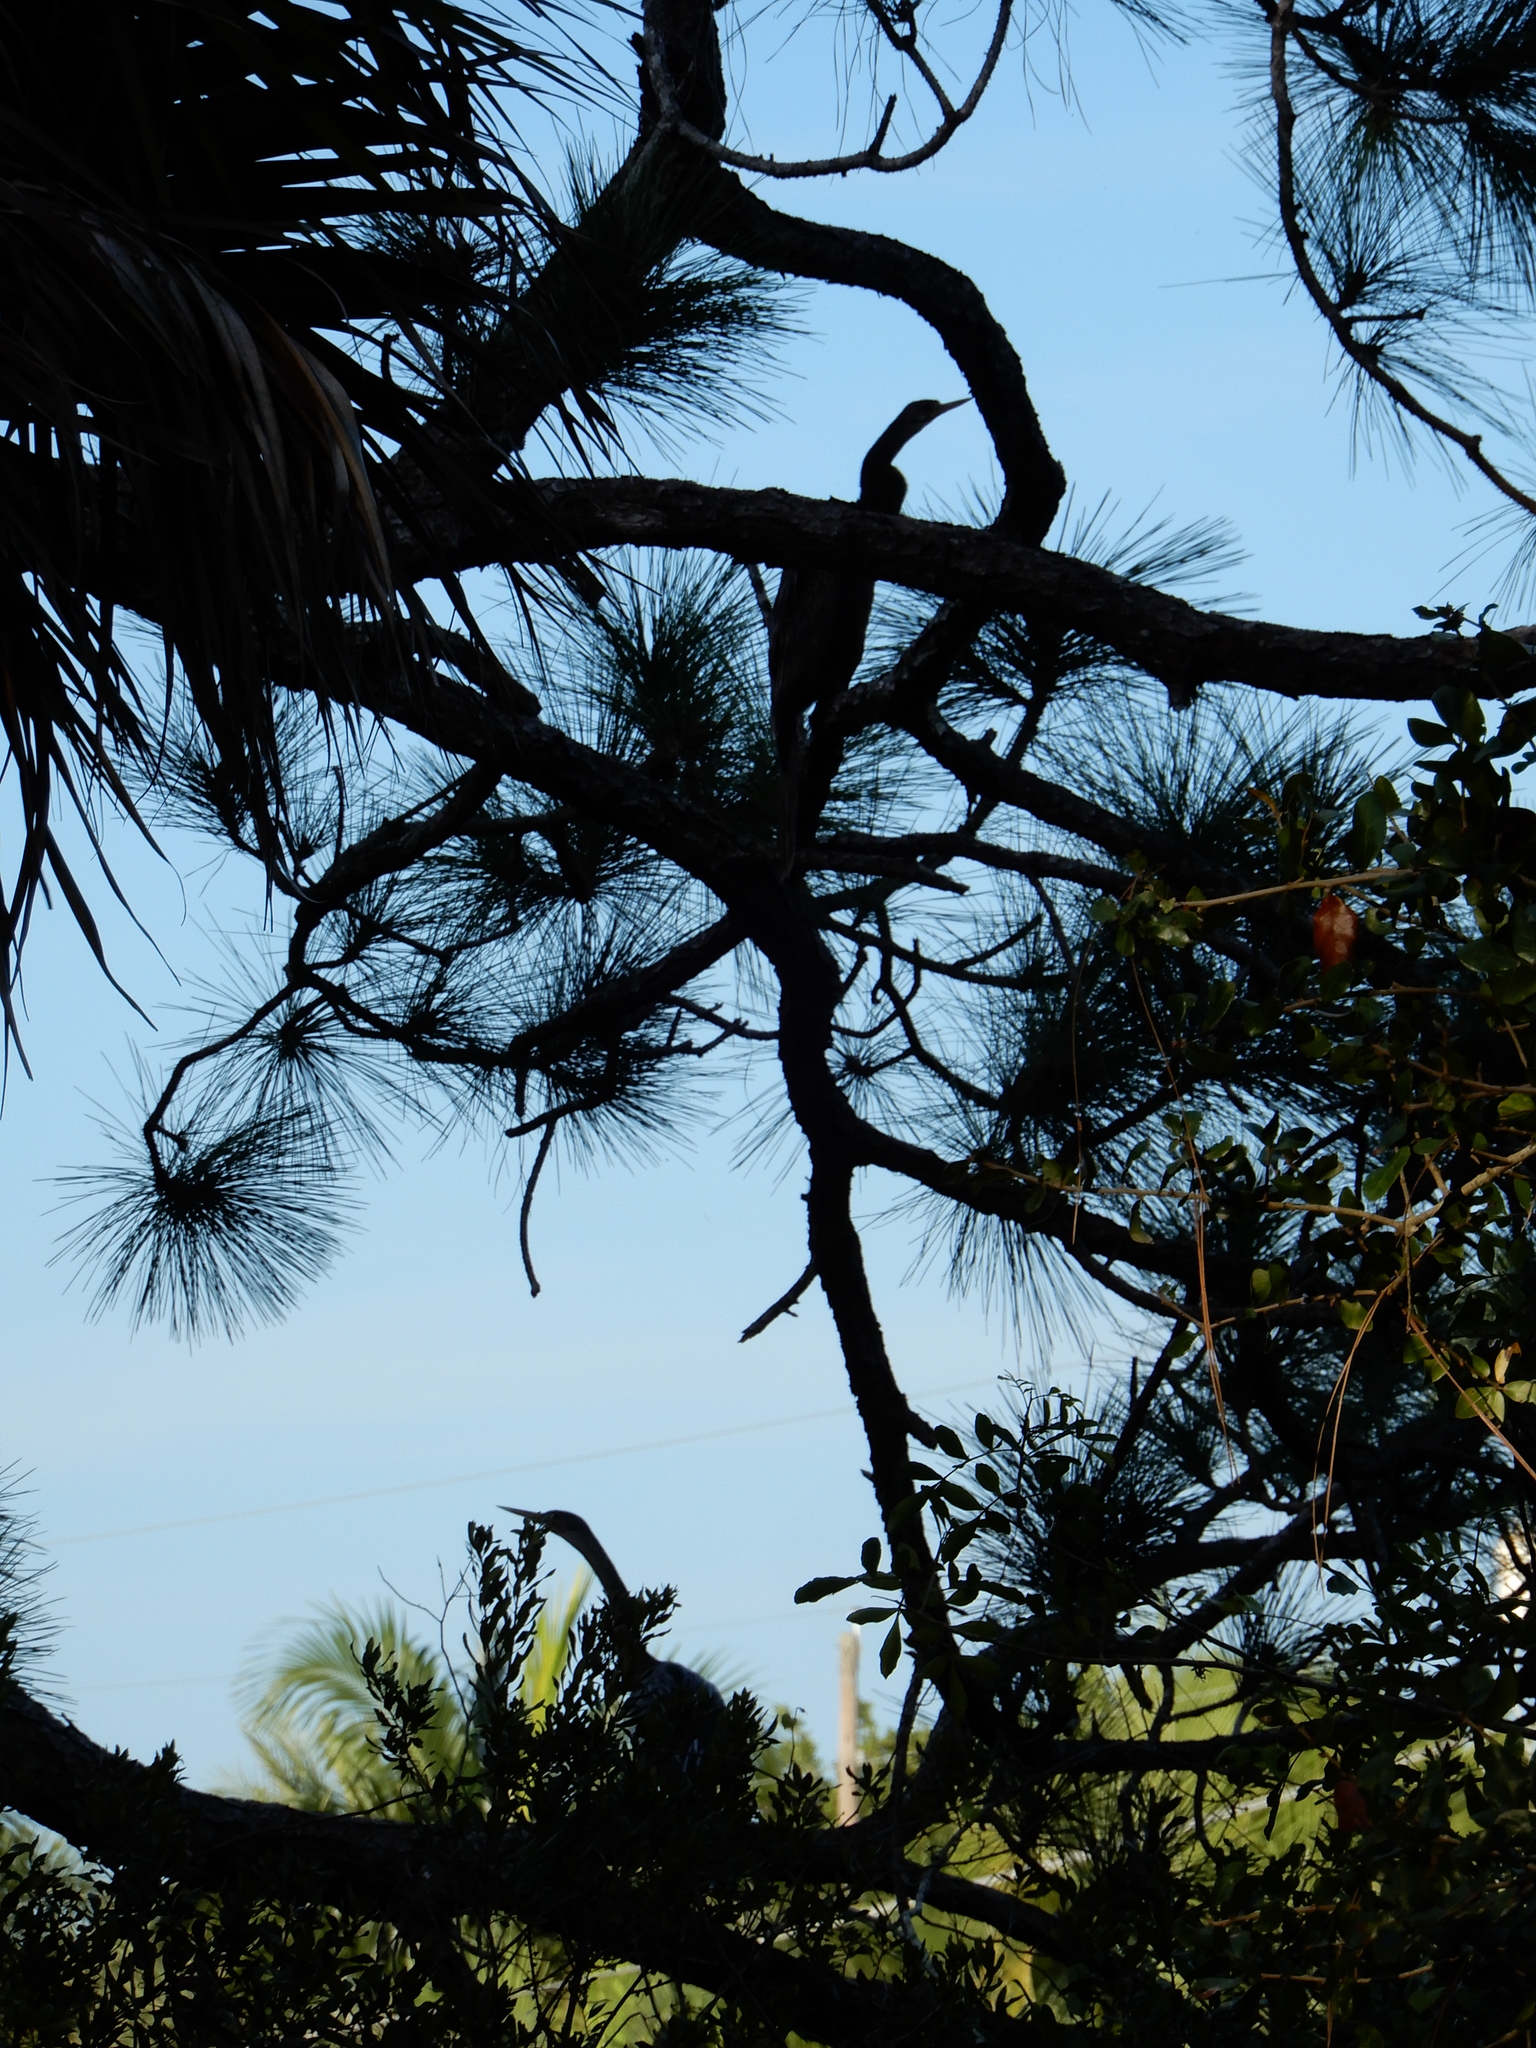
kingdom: Animalia
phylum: Chordata
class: Aves
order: Suliformes
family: Anhingidae
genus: Anhinga
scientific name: Anhinga anhinga
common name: Anhinga
